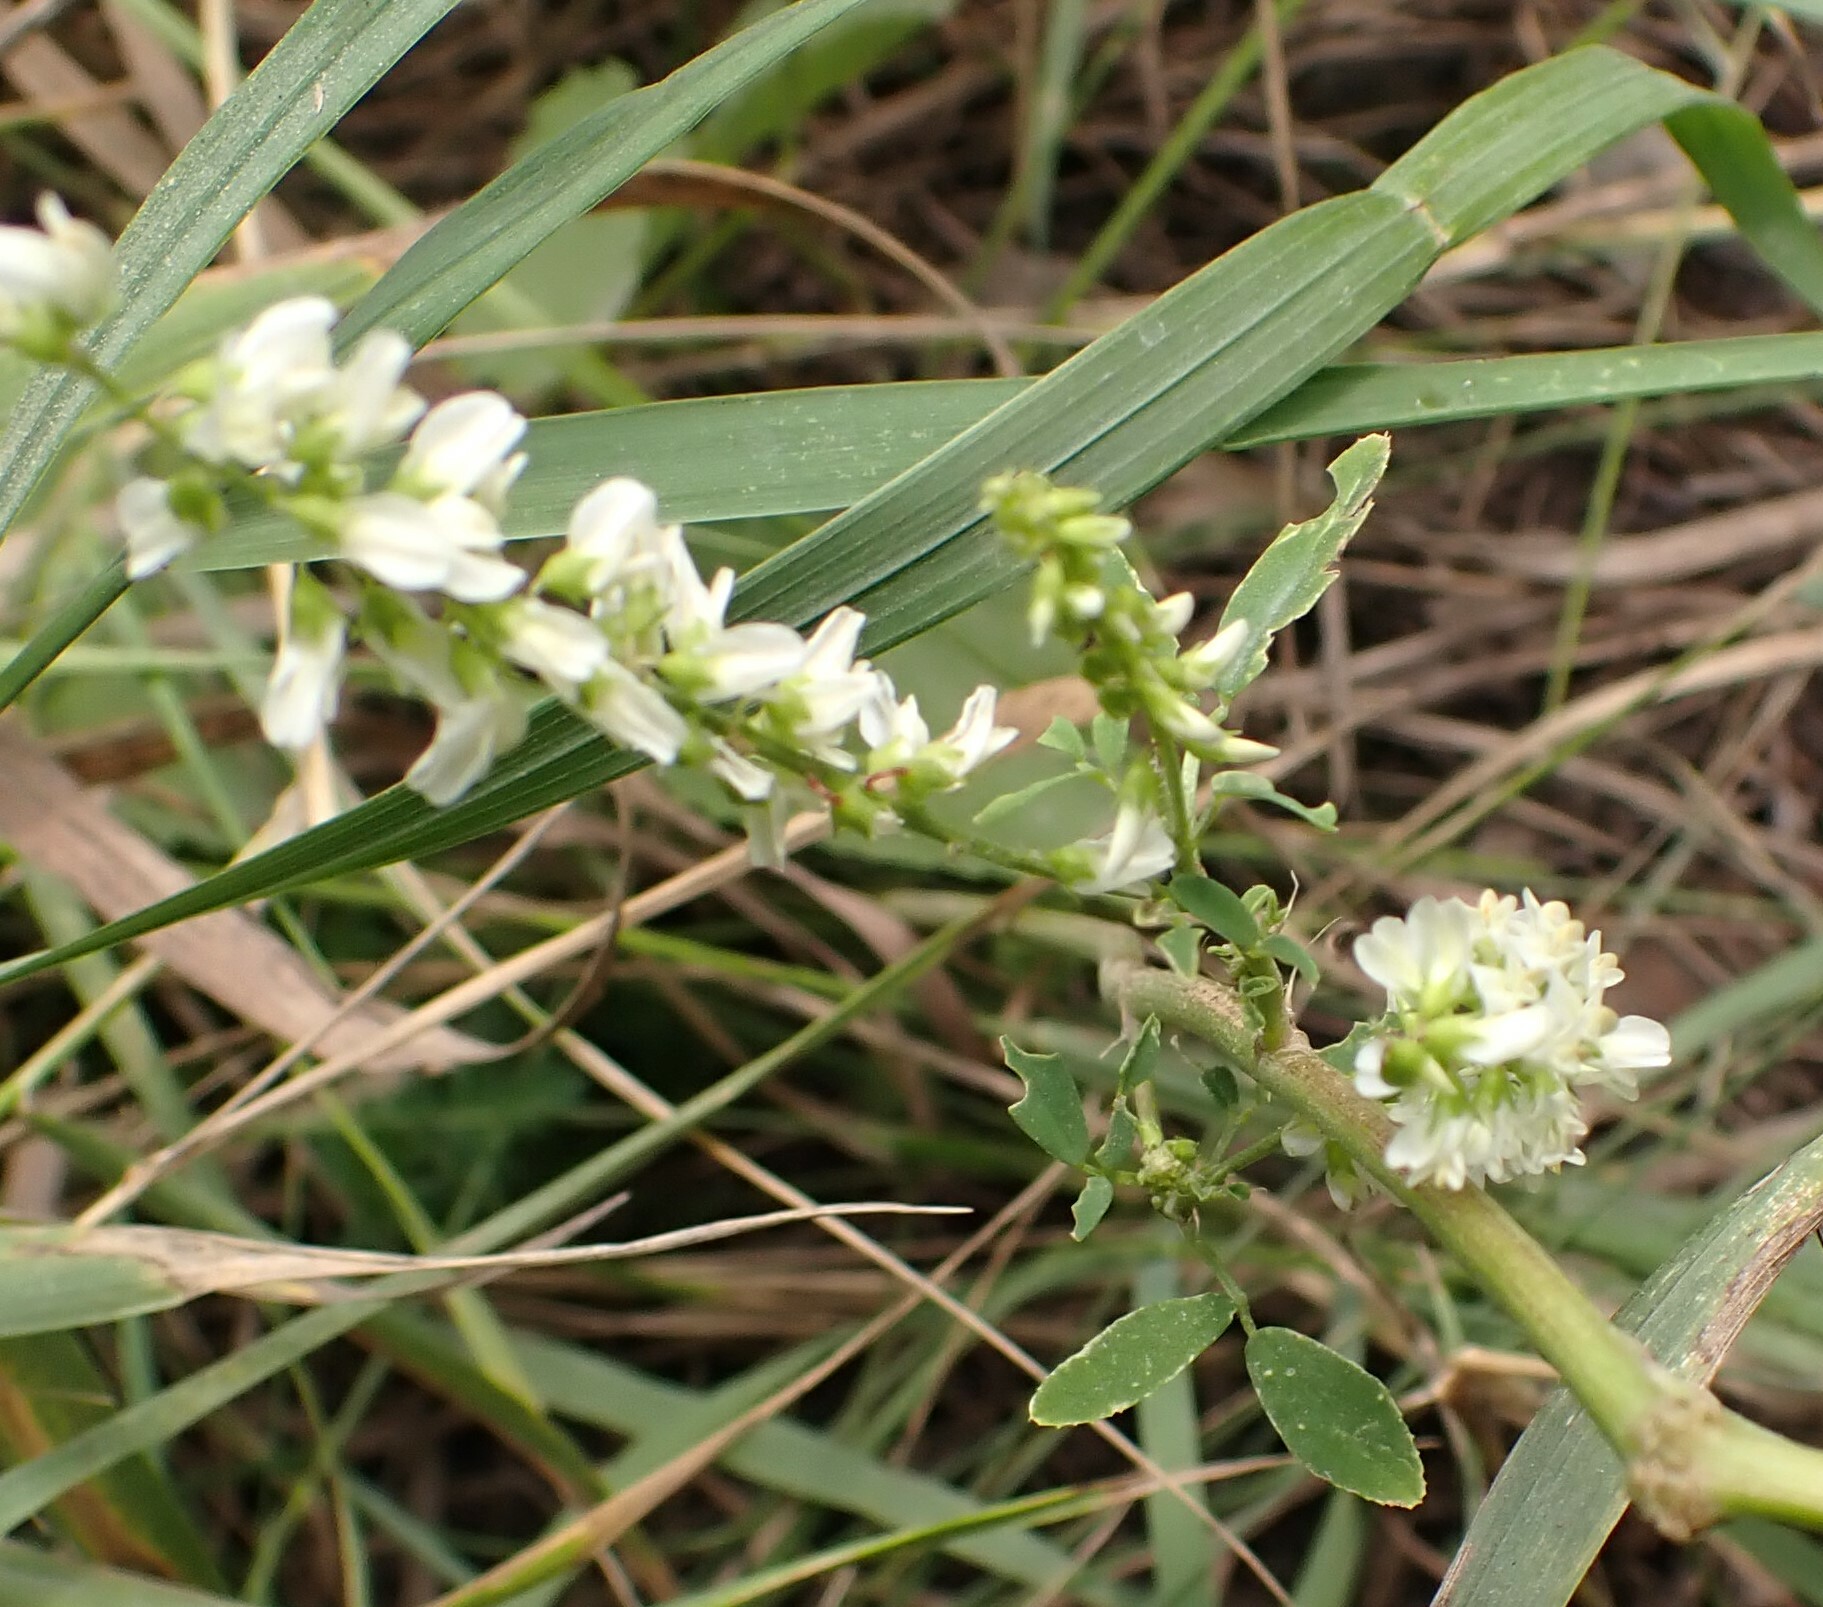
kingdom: Plantae
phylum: Tracheophyta
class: Magnoliopsida
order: Fabales
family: Fabaceae
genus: Melilotus
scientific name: Melilotus albus
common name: White melilot
